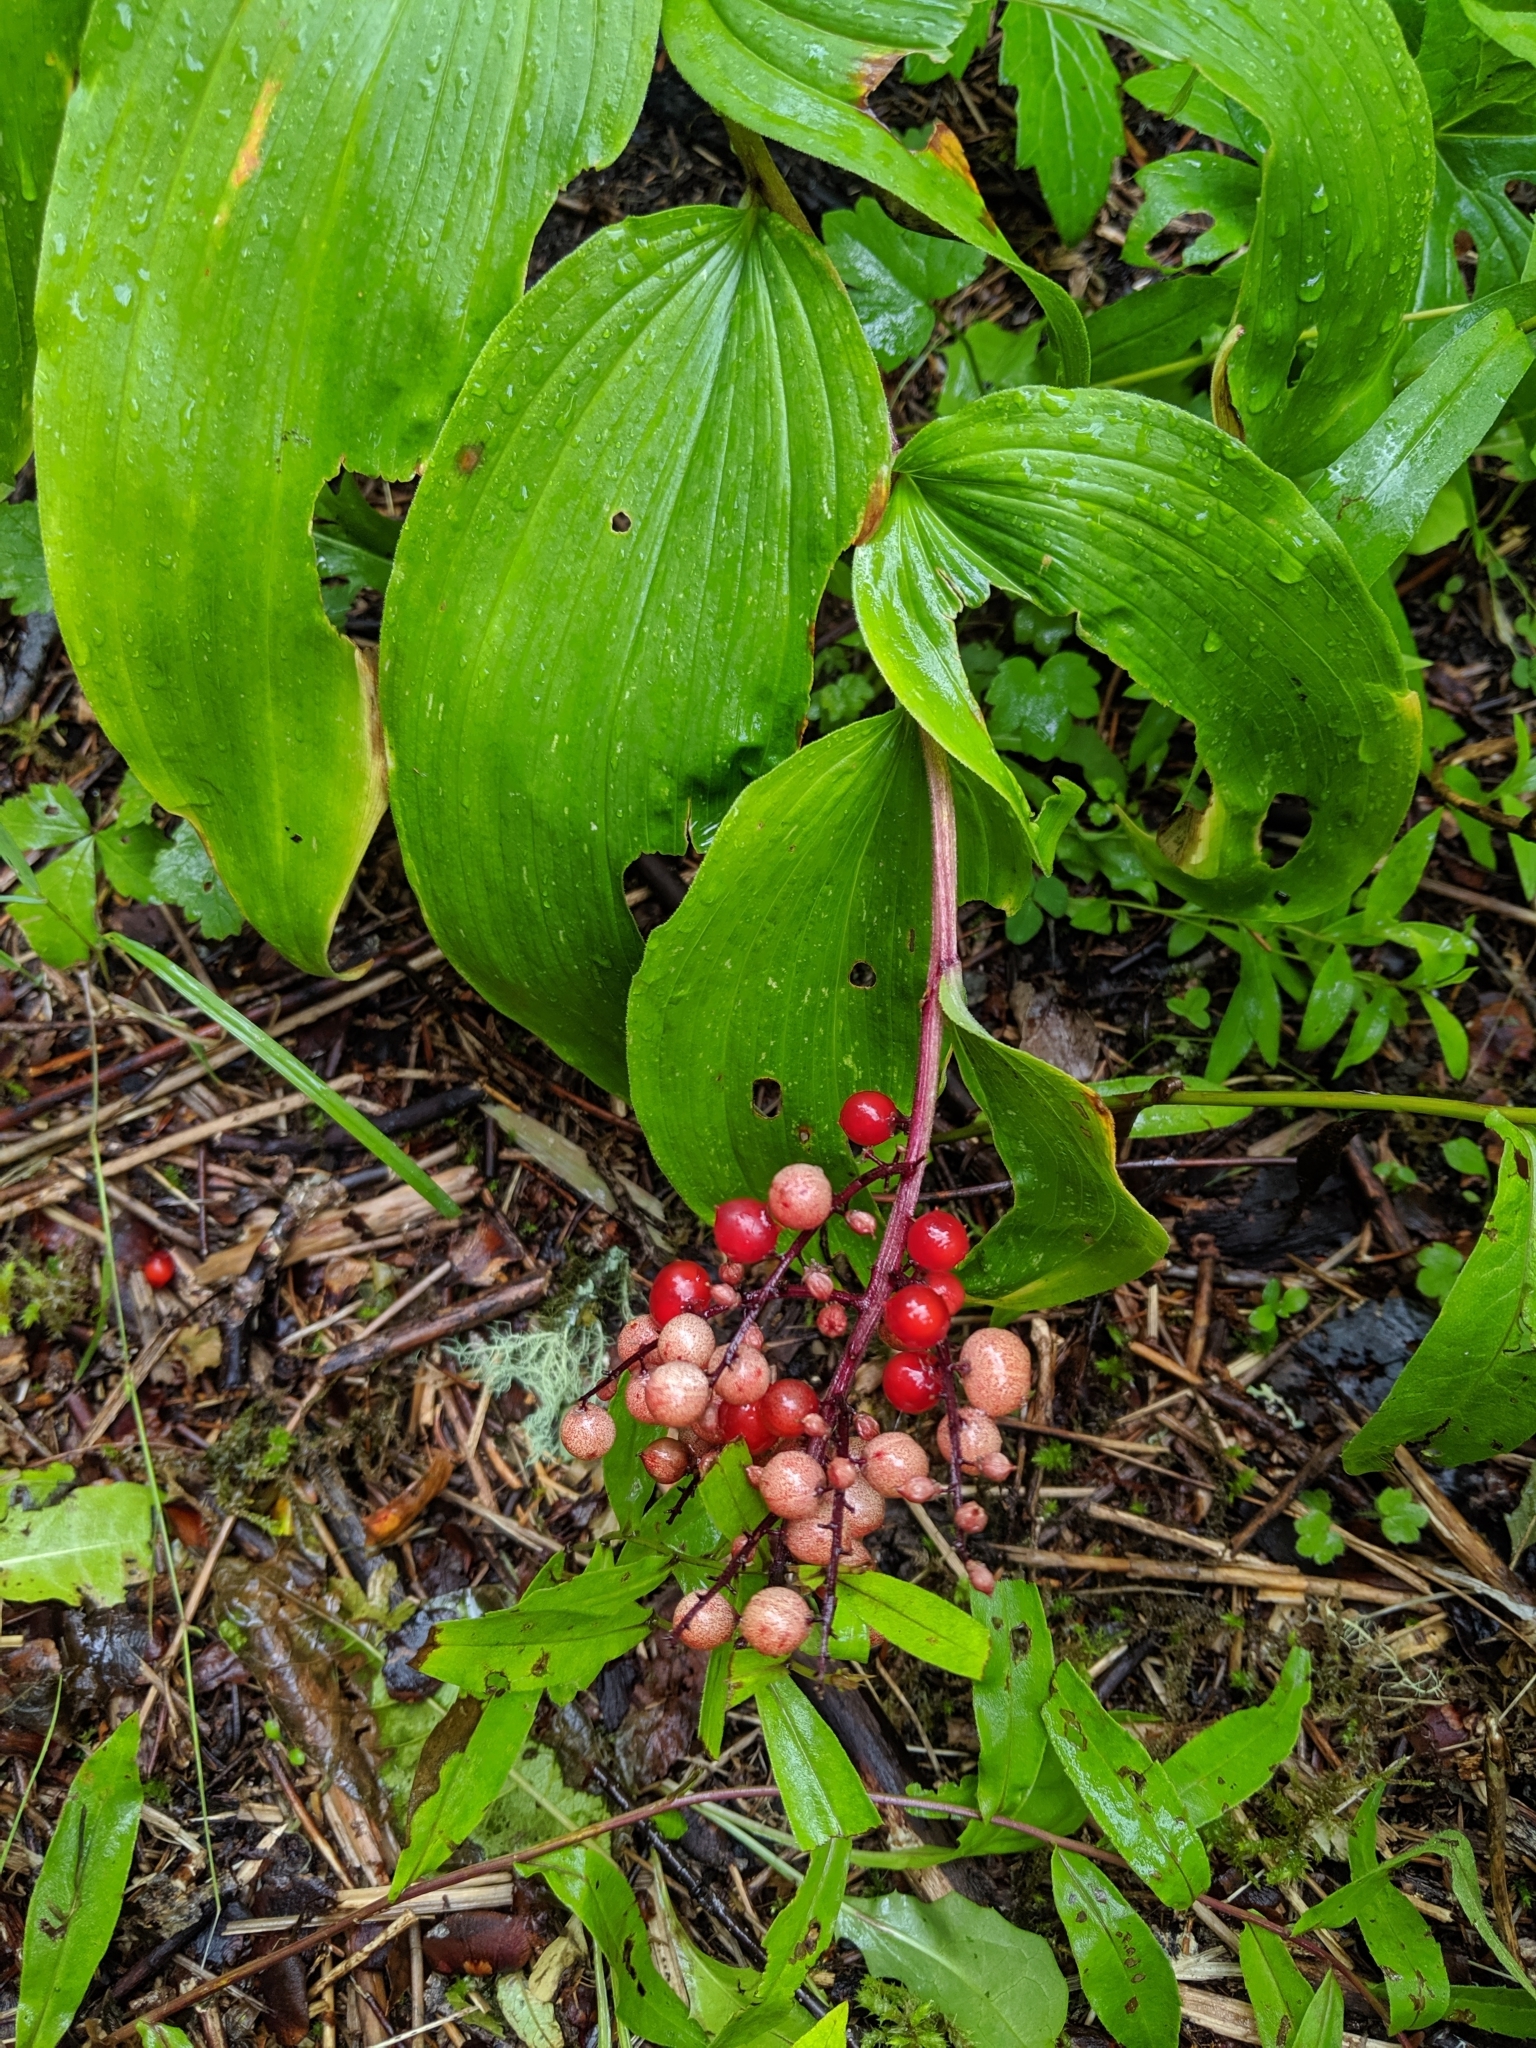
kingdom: Plantae
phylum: Tracheophyta
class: Liliopsida
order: Asparagales
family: Asparagaceae
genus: Maianthemum
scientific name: Maianthemum racemosum
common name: False spikenard
